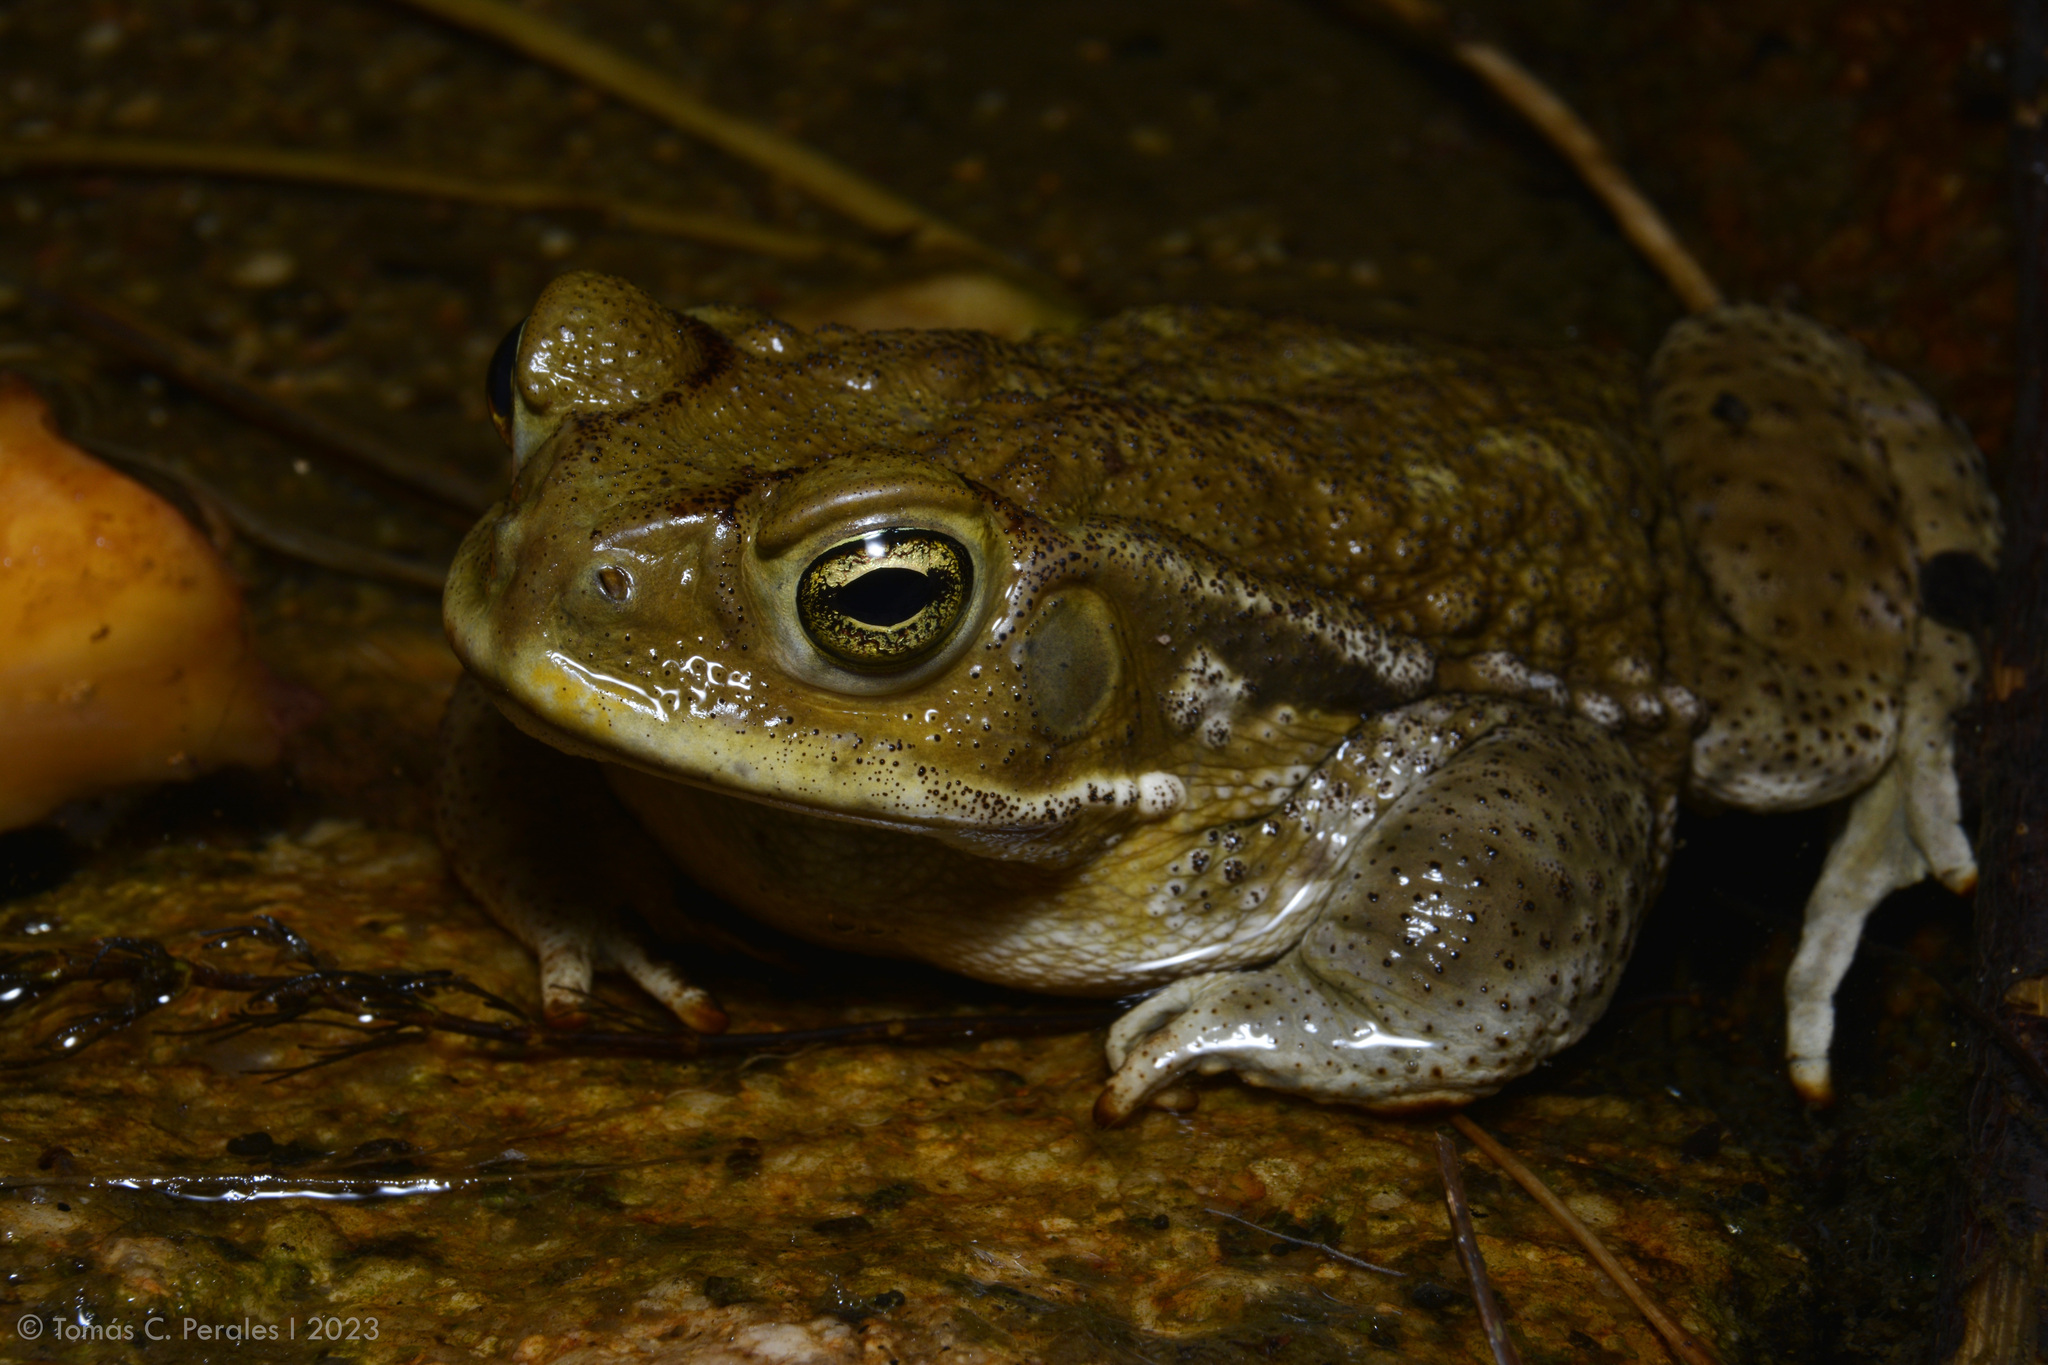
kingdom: Animalia
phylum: Chordata
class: Amphibia
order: Anura
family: Bufonidae
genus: Rhinella
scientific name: Rhinella arenarum
